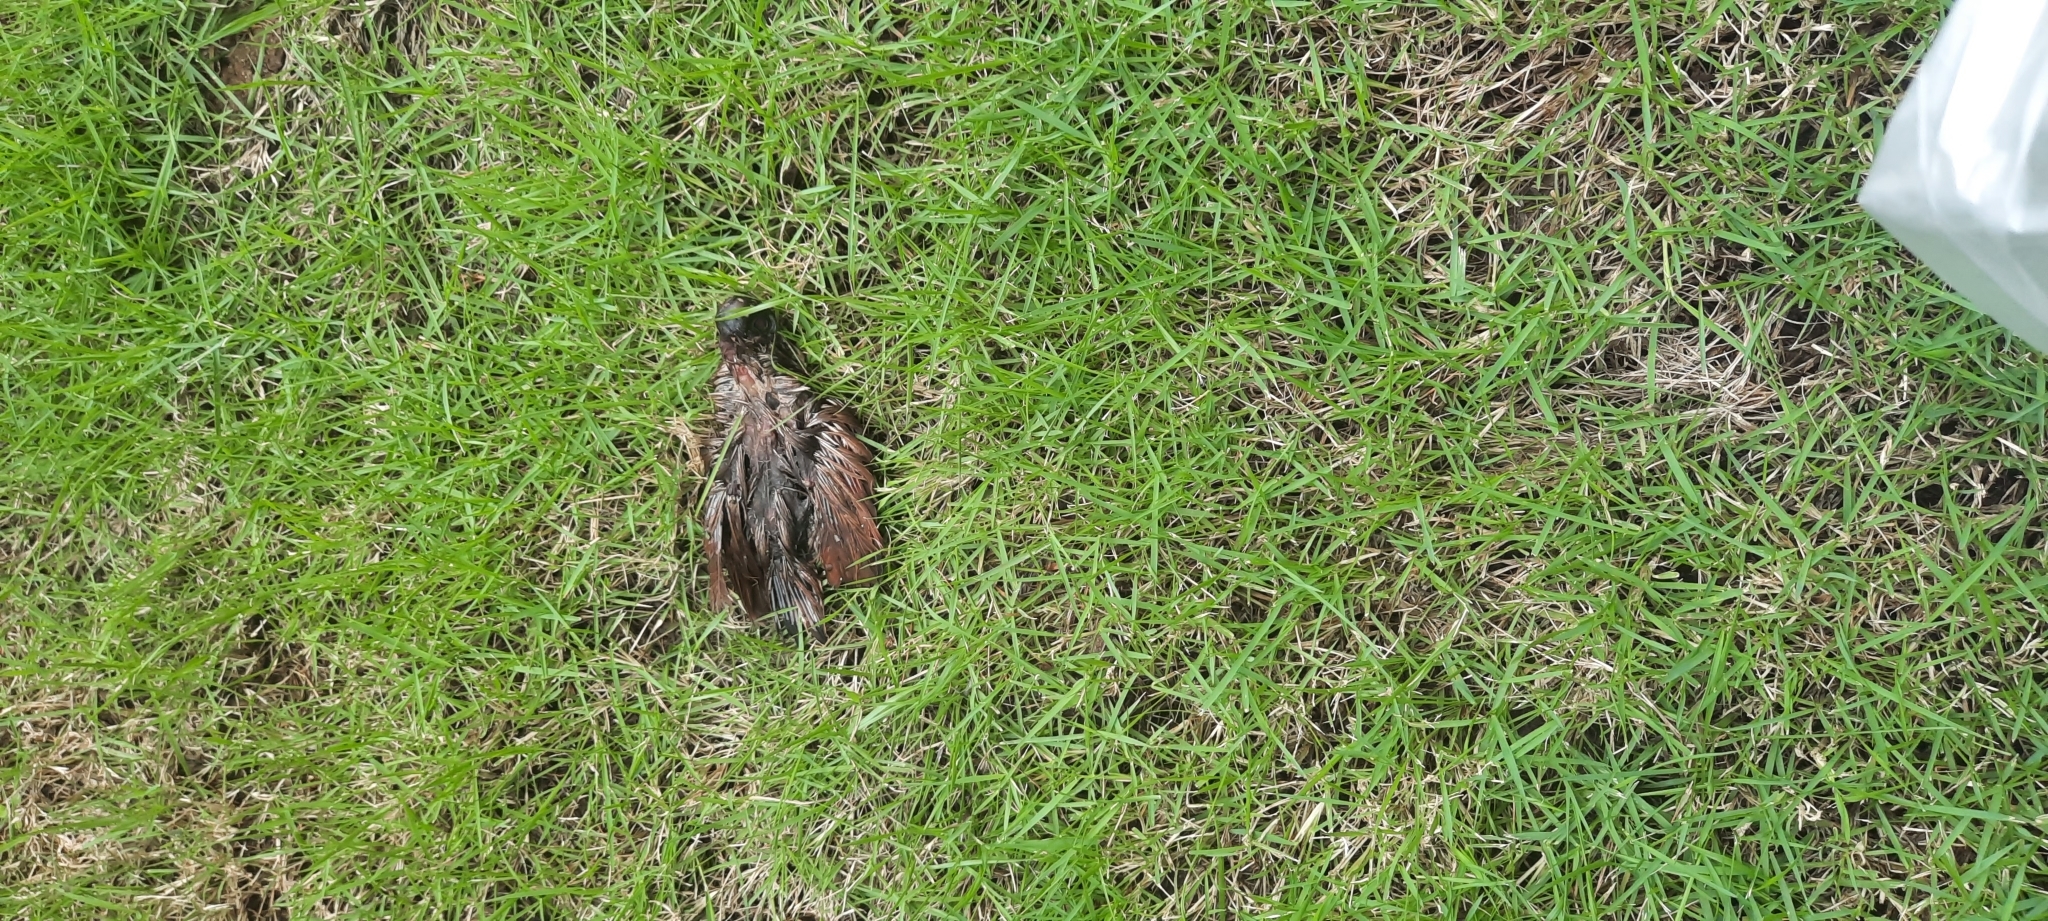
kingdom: Animalia
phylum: Chordata
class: Aves
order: Passeriformes
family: Turdidae
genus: Turdus
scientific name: Turdus grayi
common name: Clay-colored thrush
